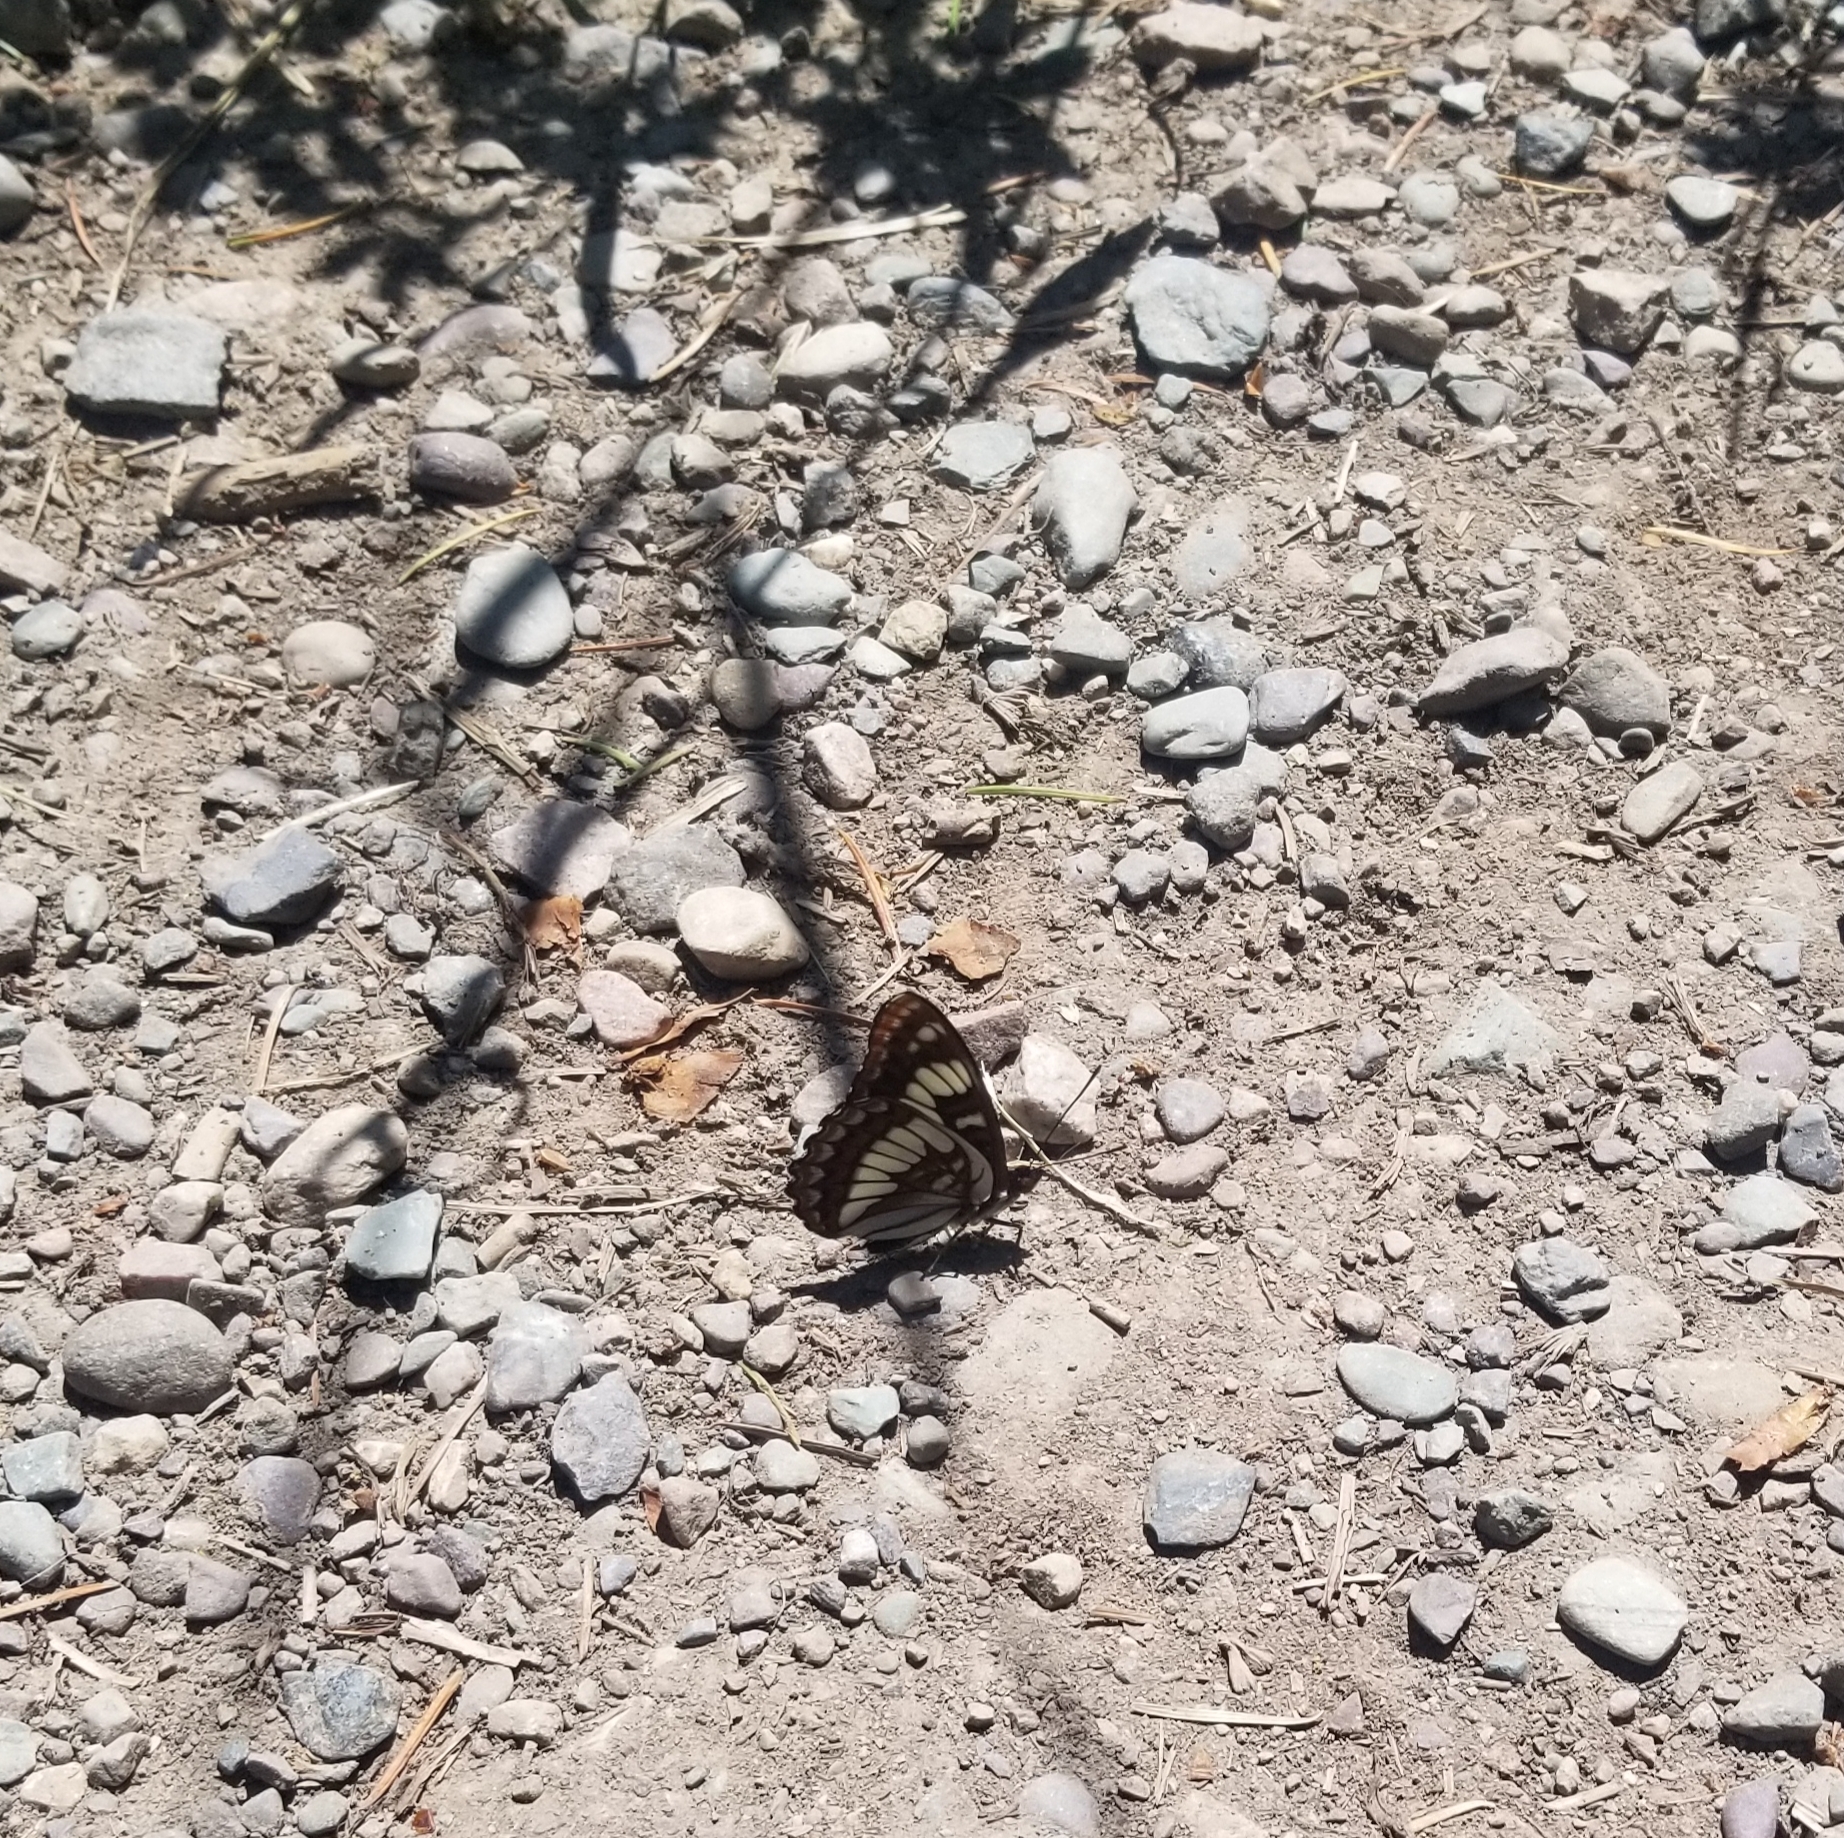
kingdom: Animalia
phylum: Arthropoda
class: Insecta
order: Lepidoptera
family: Nymphalidae
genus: Limenitis
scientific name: Limenitis lorquini
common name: Lorquin's admiral
